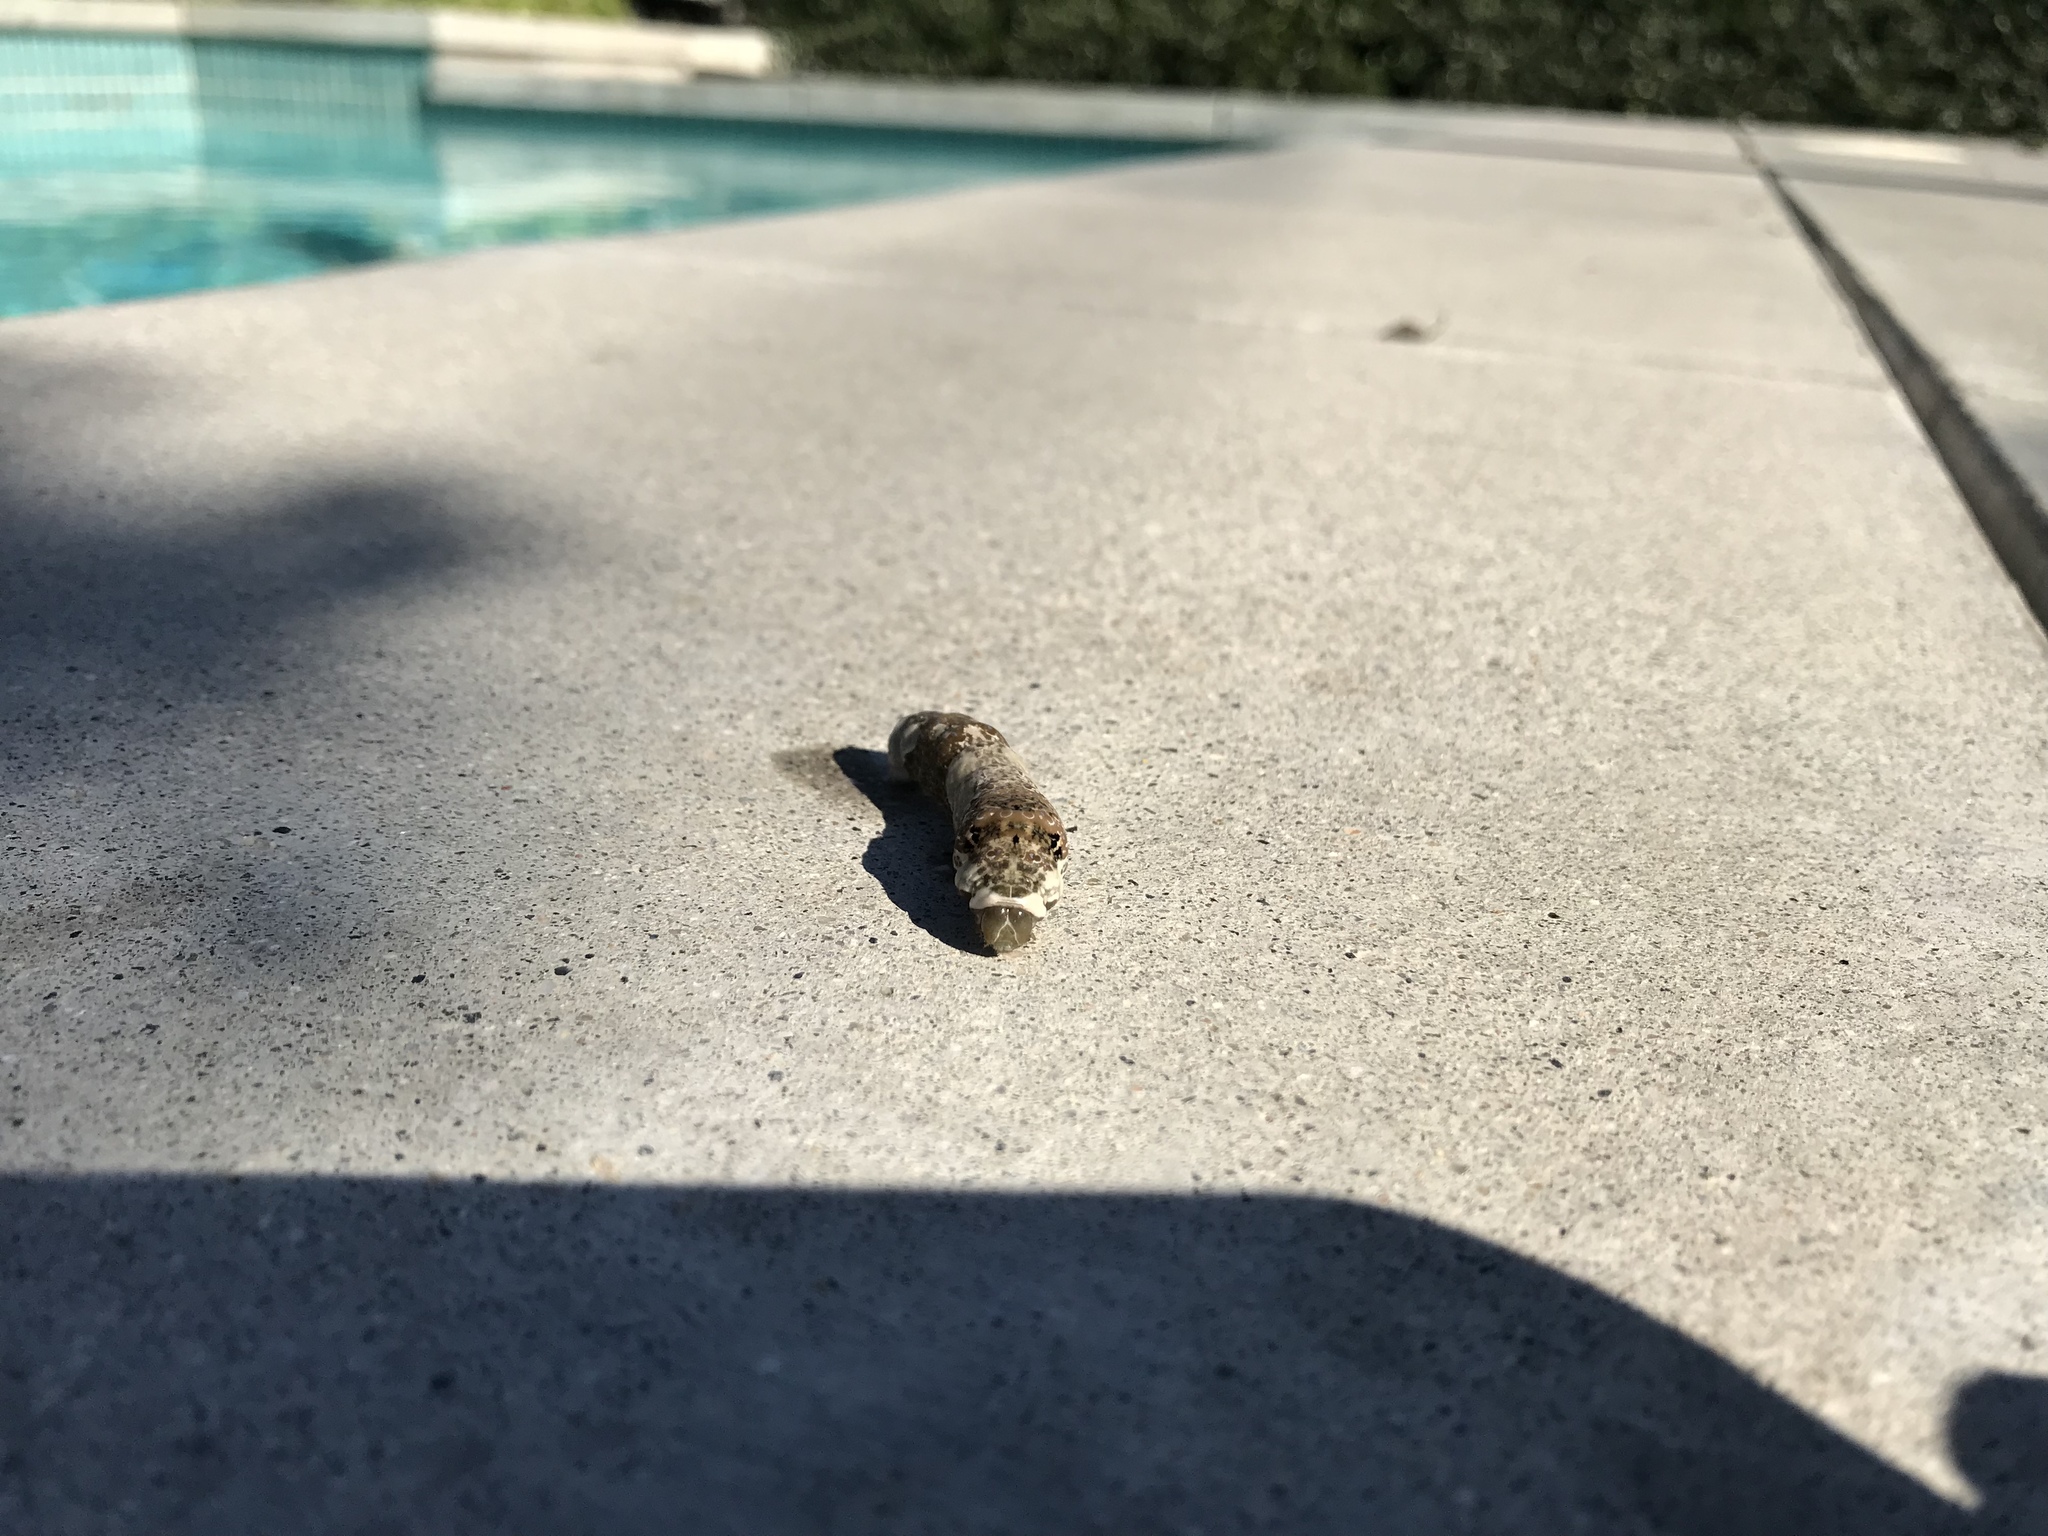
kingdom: Animalia
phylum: Arthropoda
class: Insecta
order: Lepidoptera
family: Papilionidae
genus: Papilio
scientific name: Papilio rumiko
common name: Western giant swallowtail
